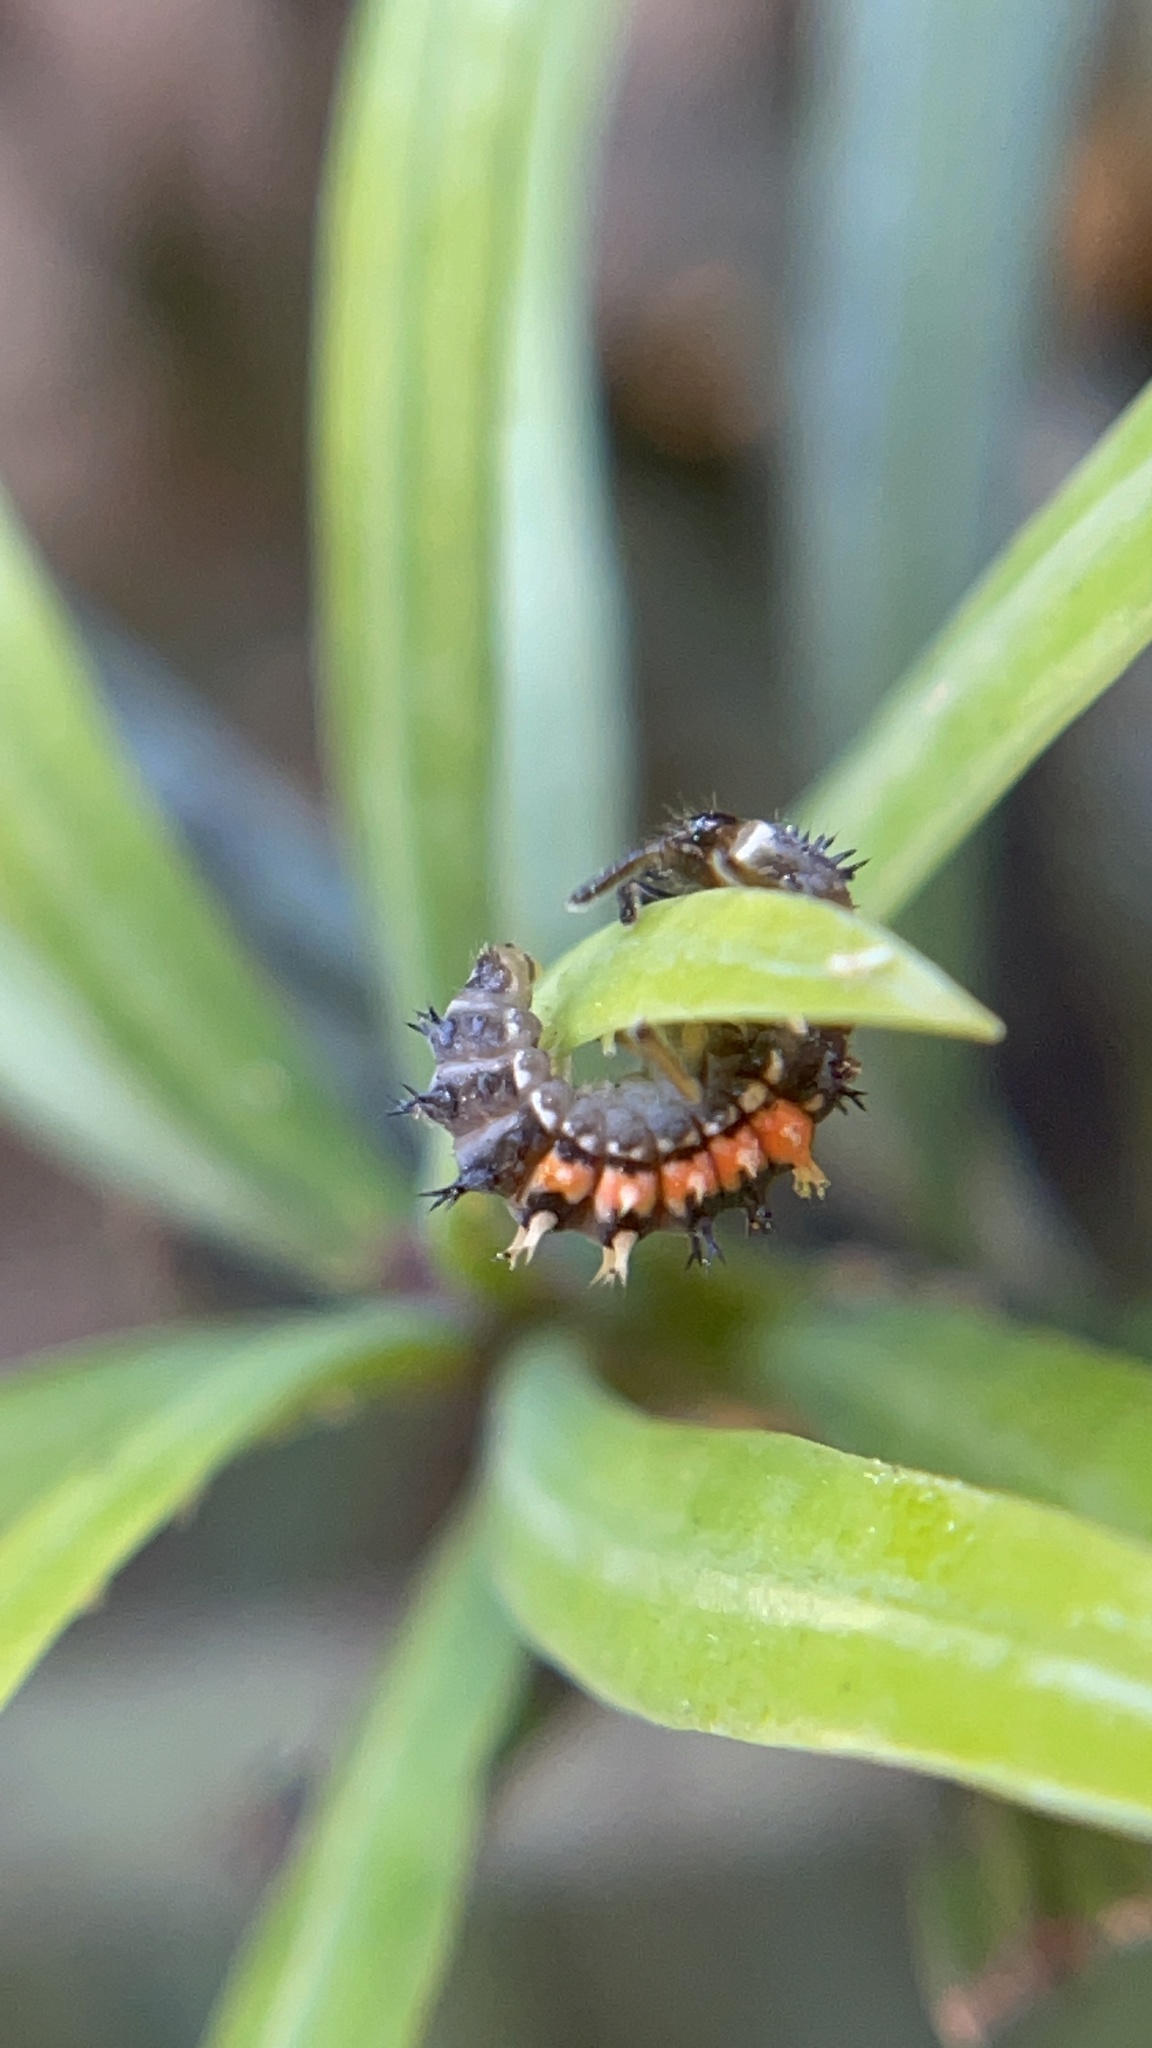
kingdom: Animalia
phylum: Arthropoda
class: Insecta
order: Coleoptera
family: Coccinellidae
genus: Harmonia
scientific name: Harmonia axyridis
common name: Harlequin ladybird
